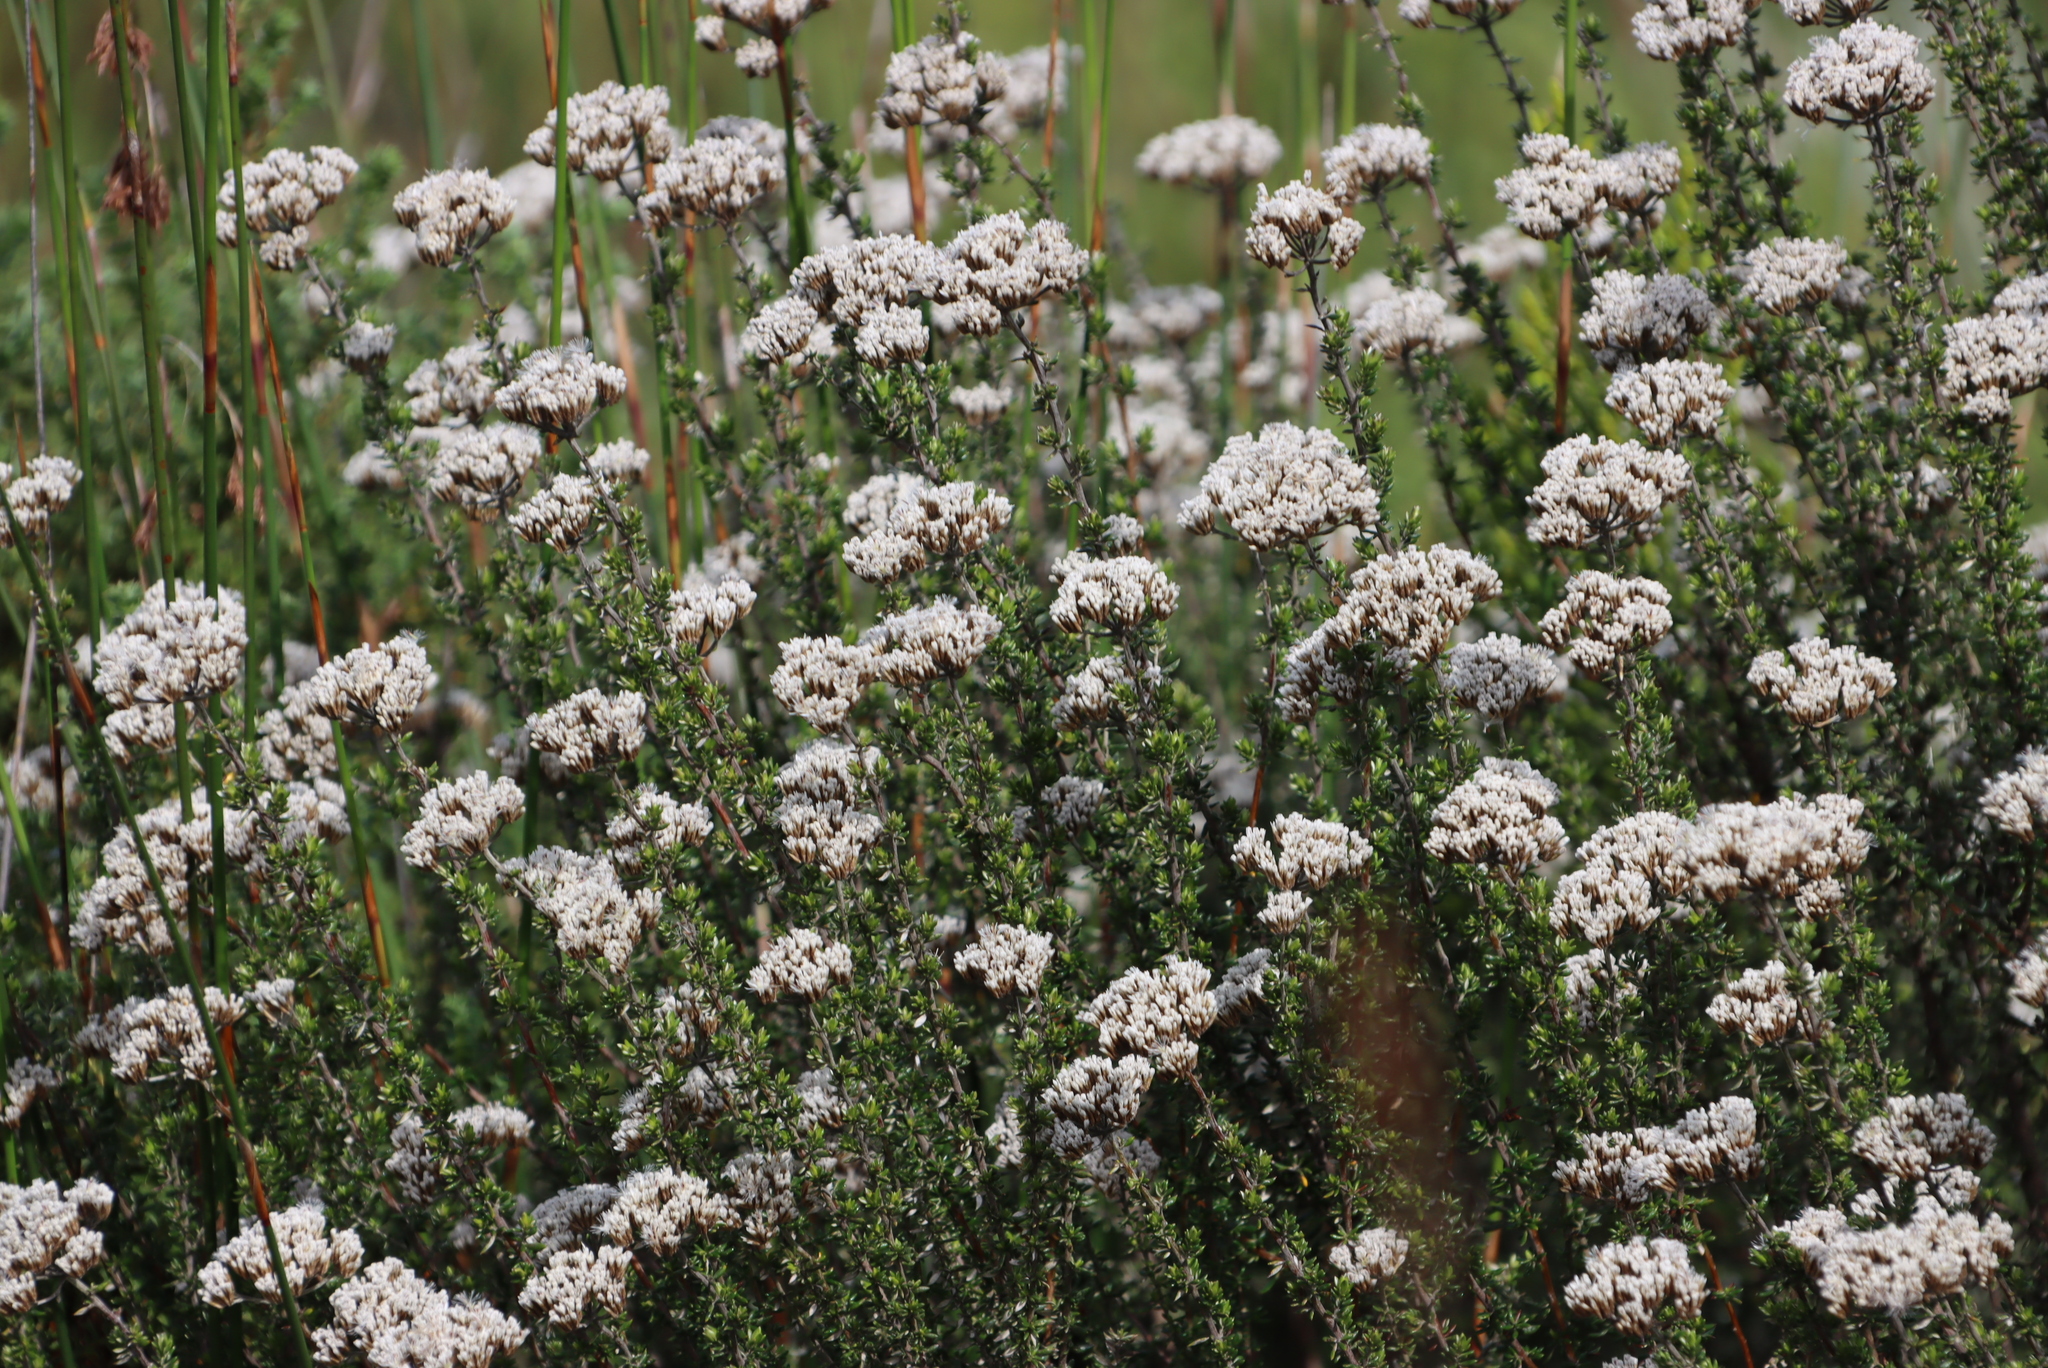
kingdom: Plantae
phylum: Tracheophyta
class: Magnoliopsida
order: Asterales
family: Asteraceae
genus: Metalasia
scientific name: Metalasia densa
